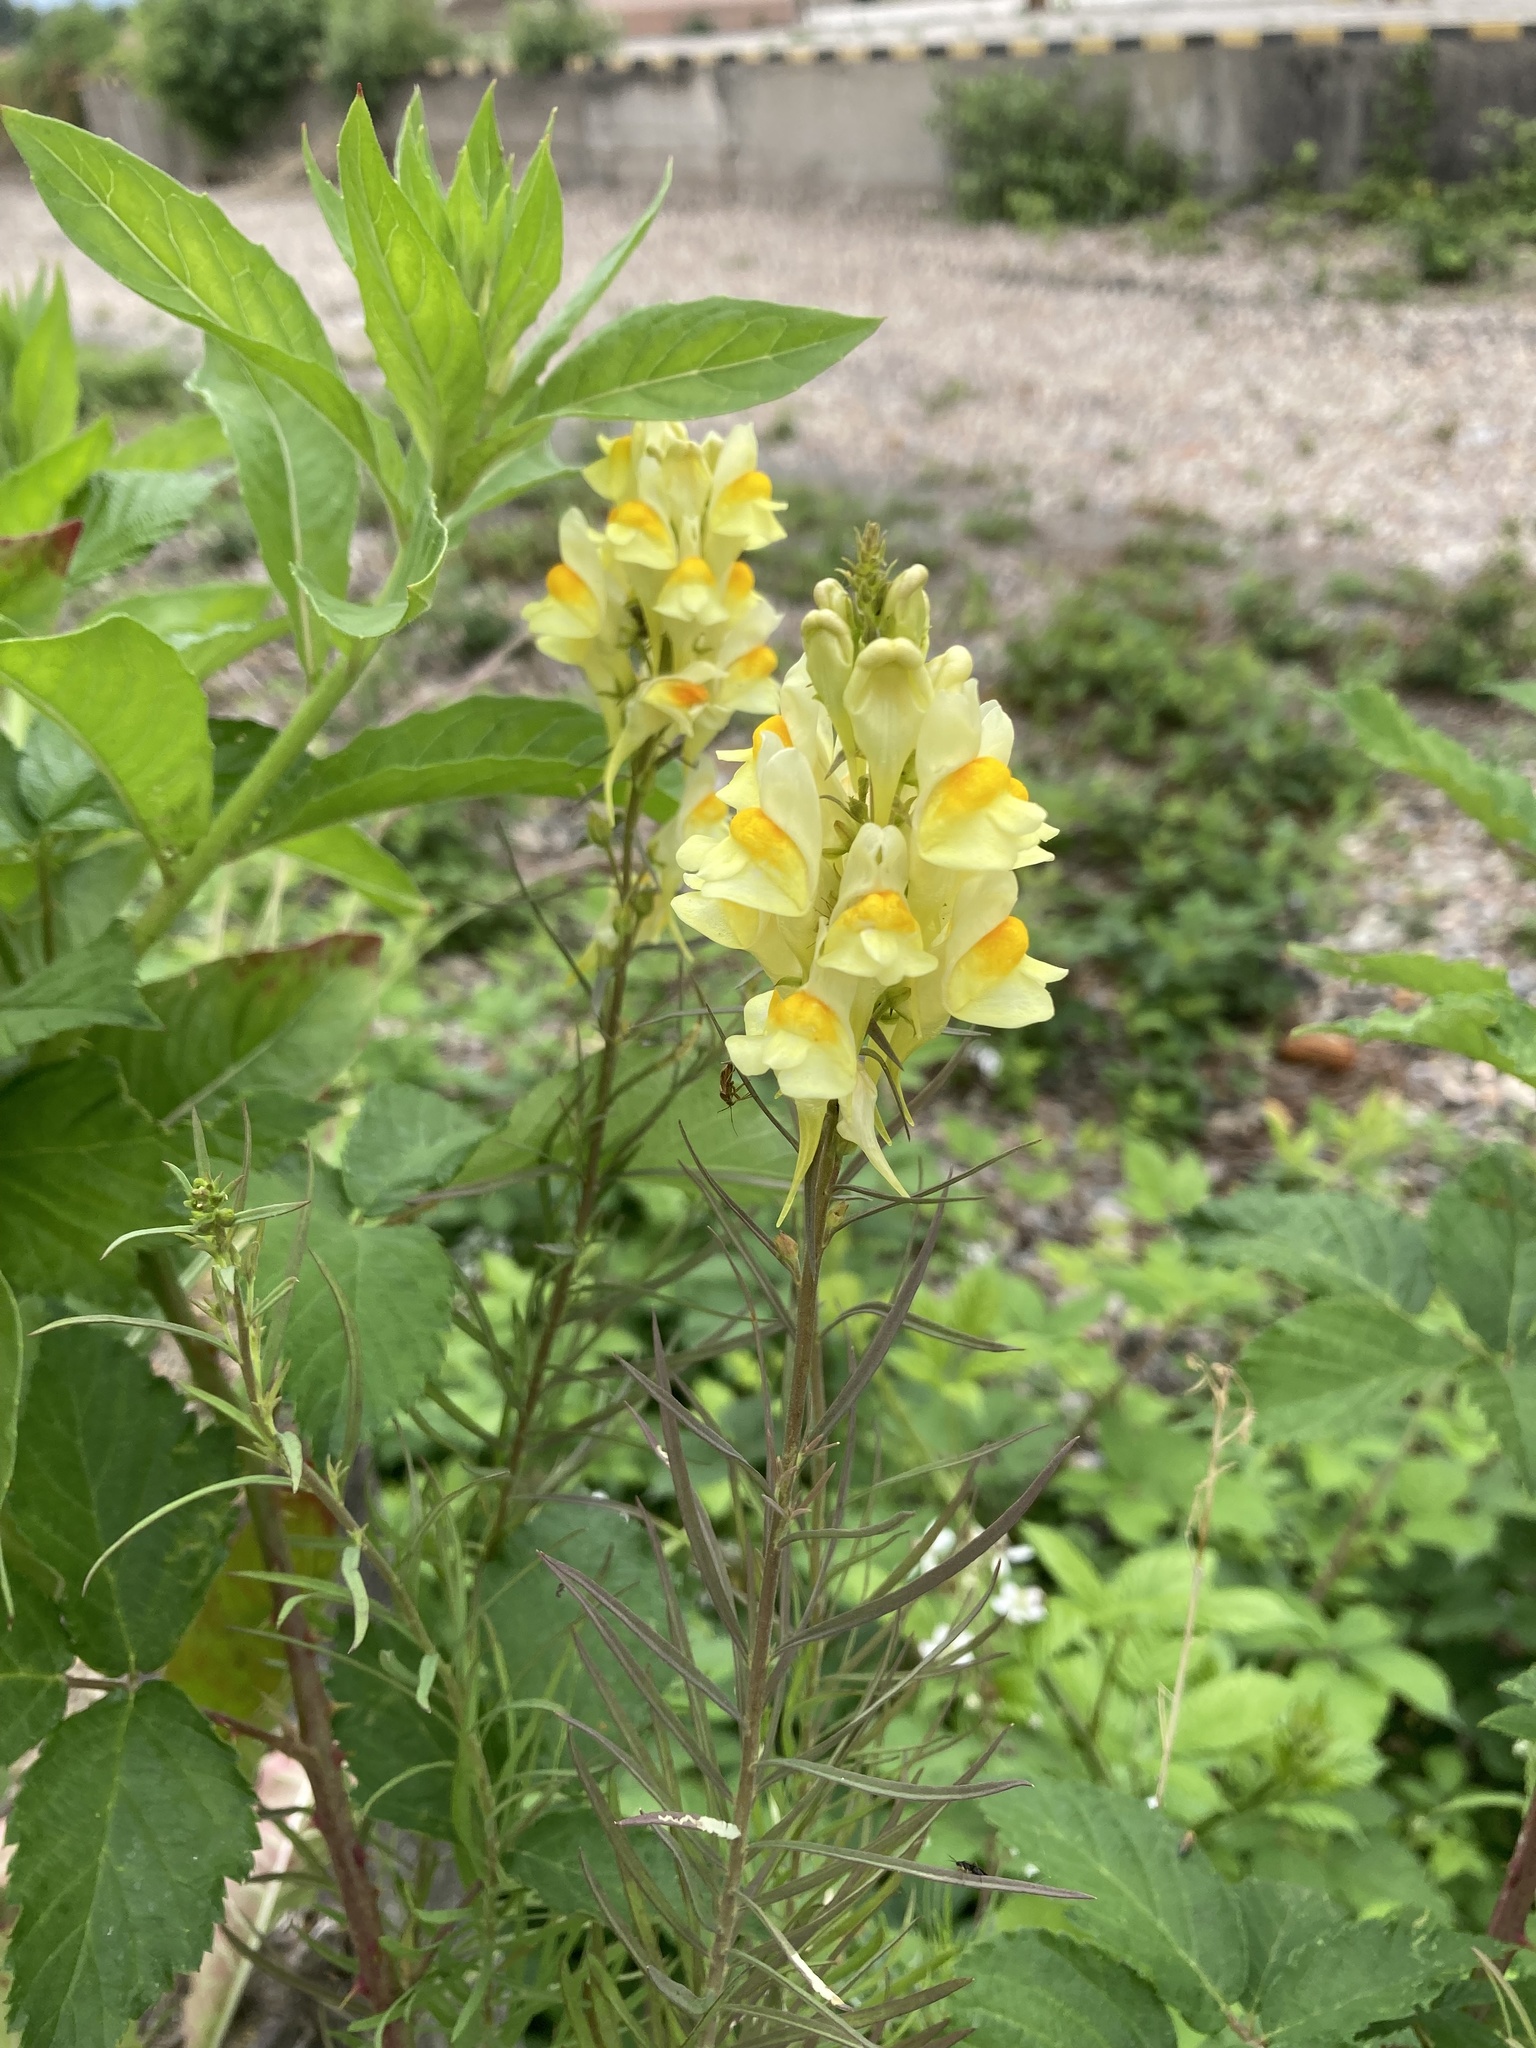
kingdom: Plantae
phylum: Tracheophyta
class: Magnoliopsida
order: Lamiales
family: Plantaginaceae
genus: Linaria
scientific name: Linaria vulgaris
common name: Butter and eggs
